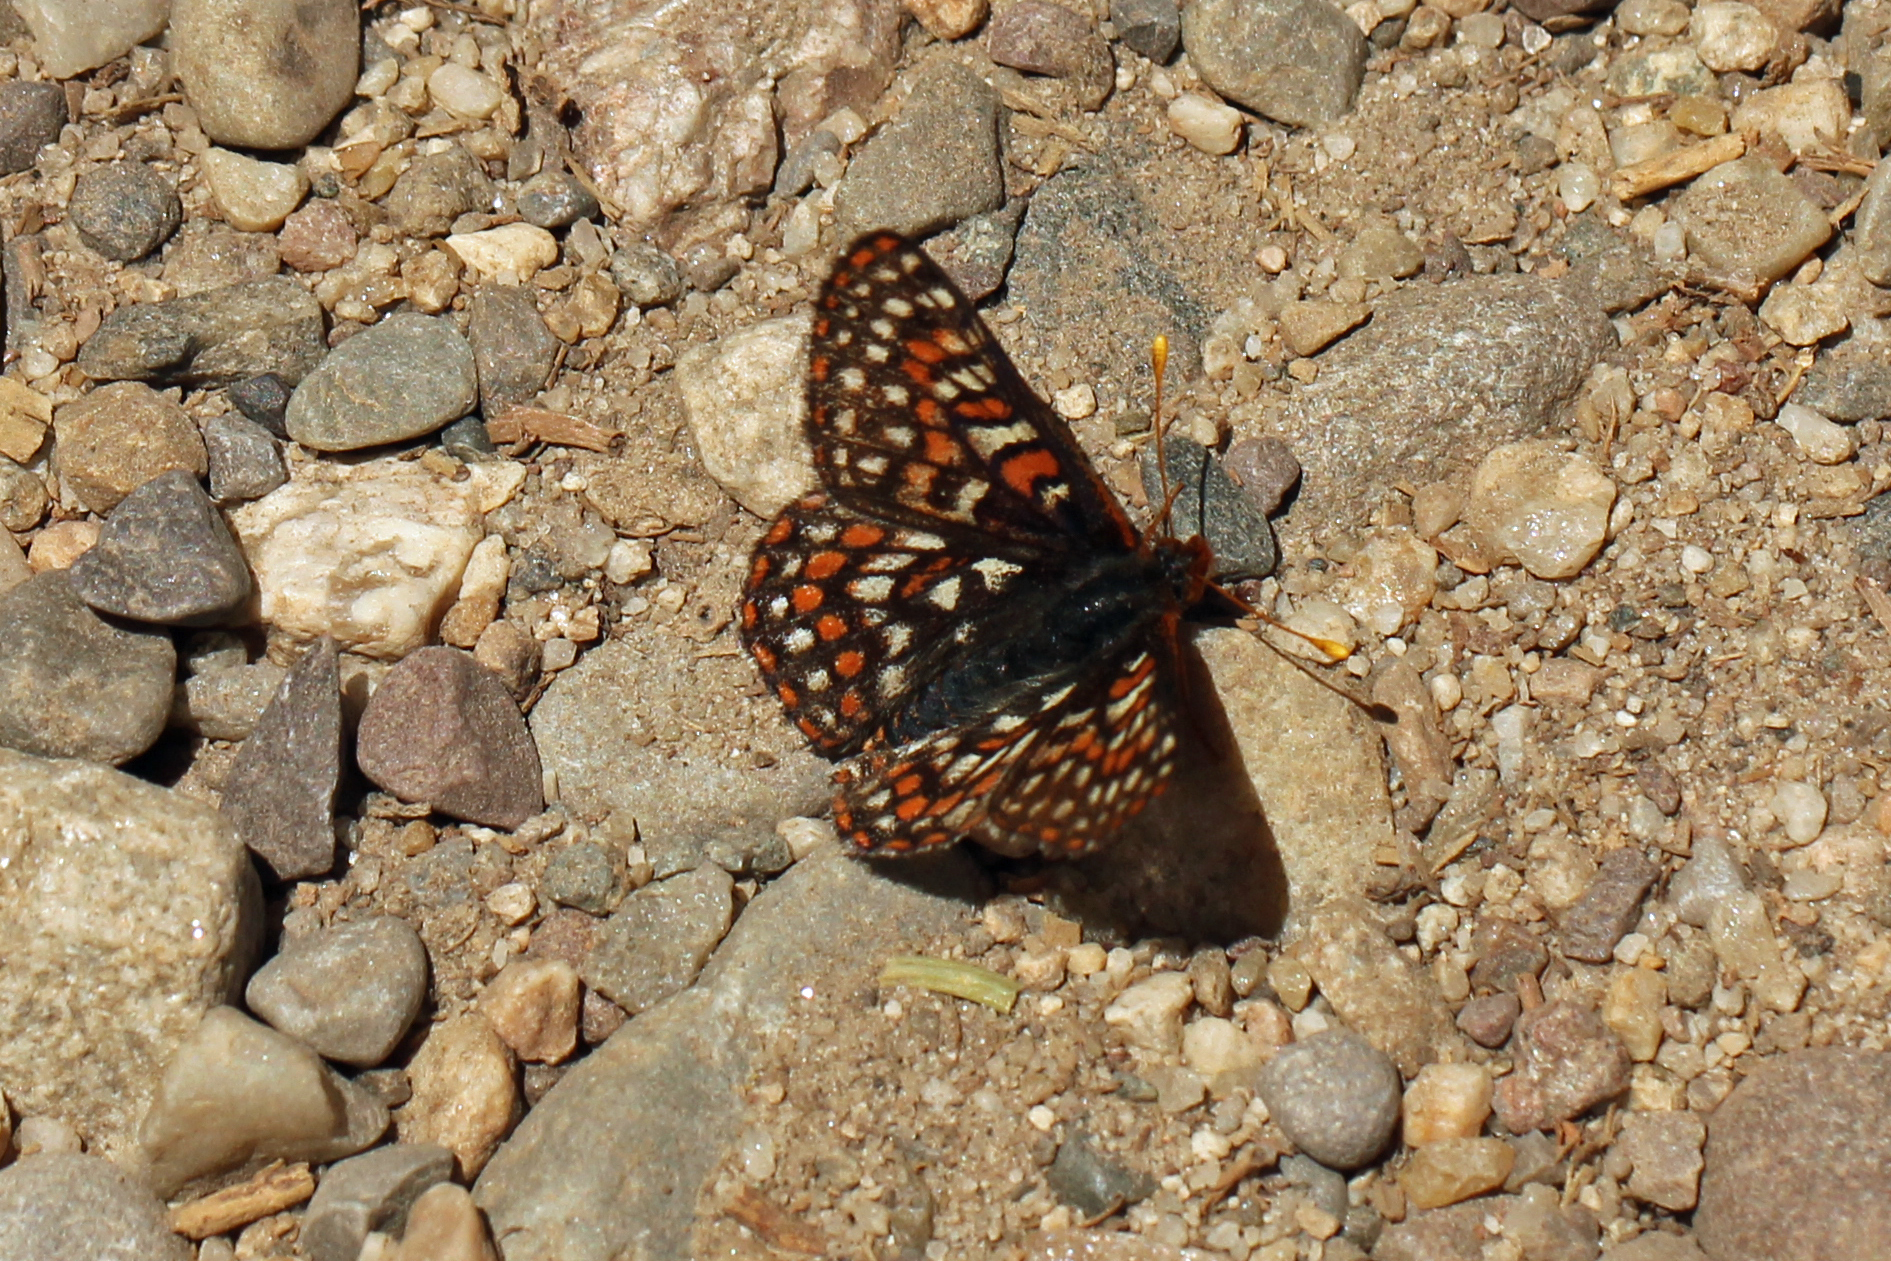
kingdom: Animalia
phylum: Arthropoda
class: Insecta
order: Lepidoptera
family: Nymphalidae
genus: Occidryas
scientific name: Occidryas editha
